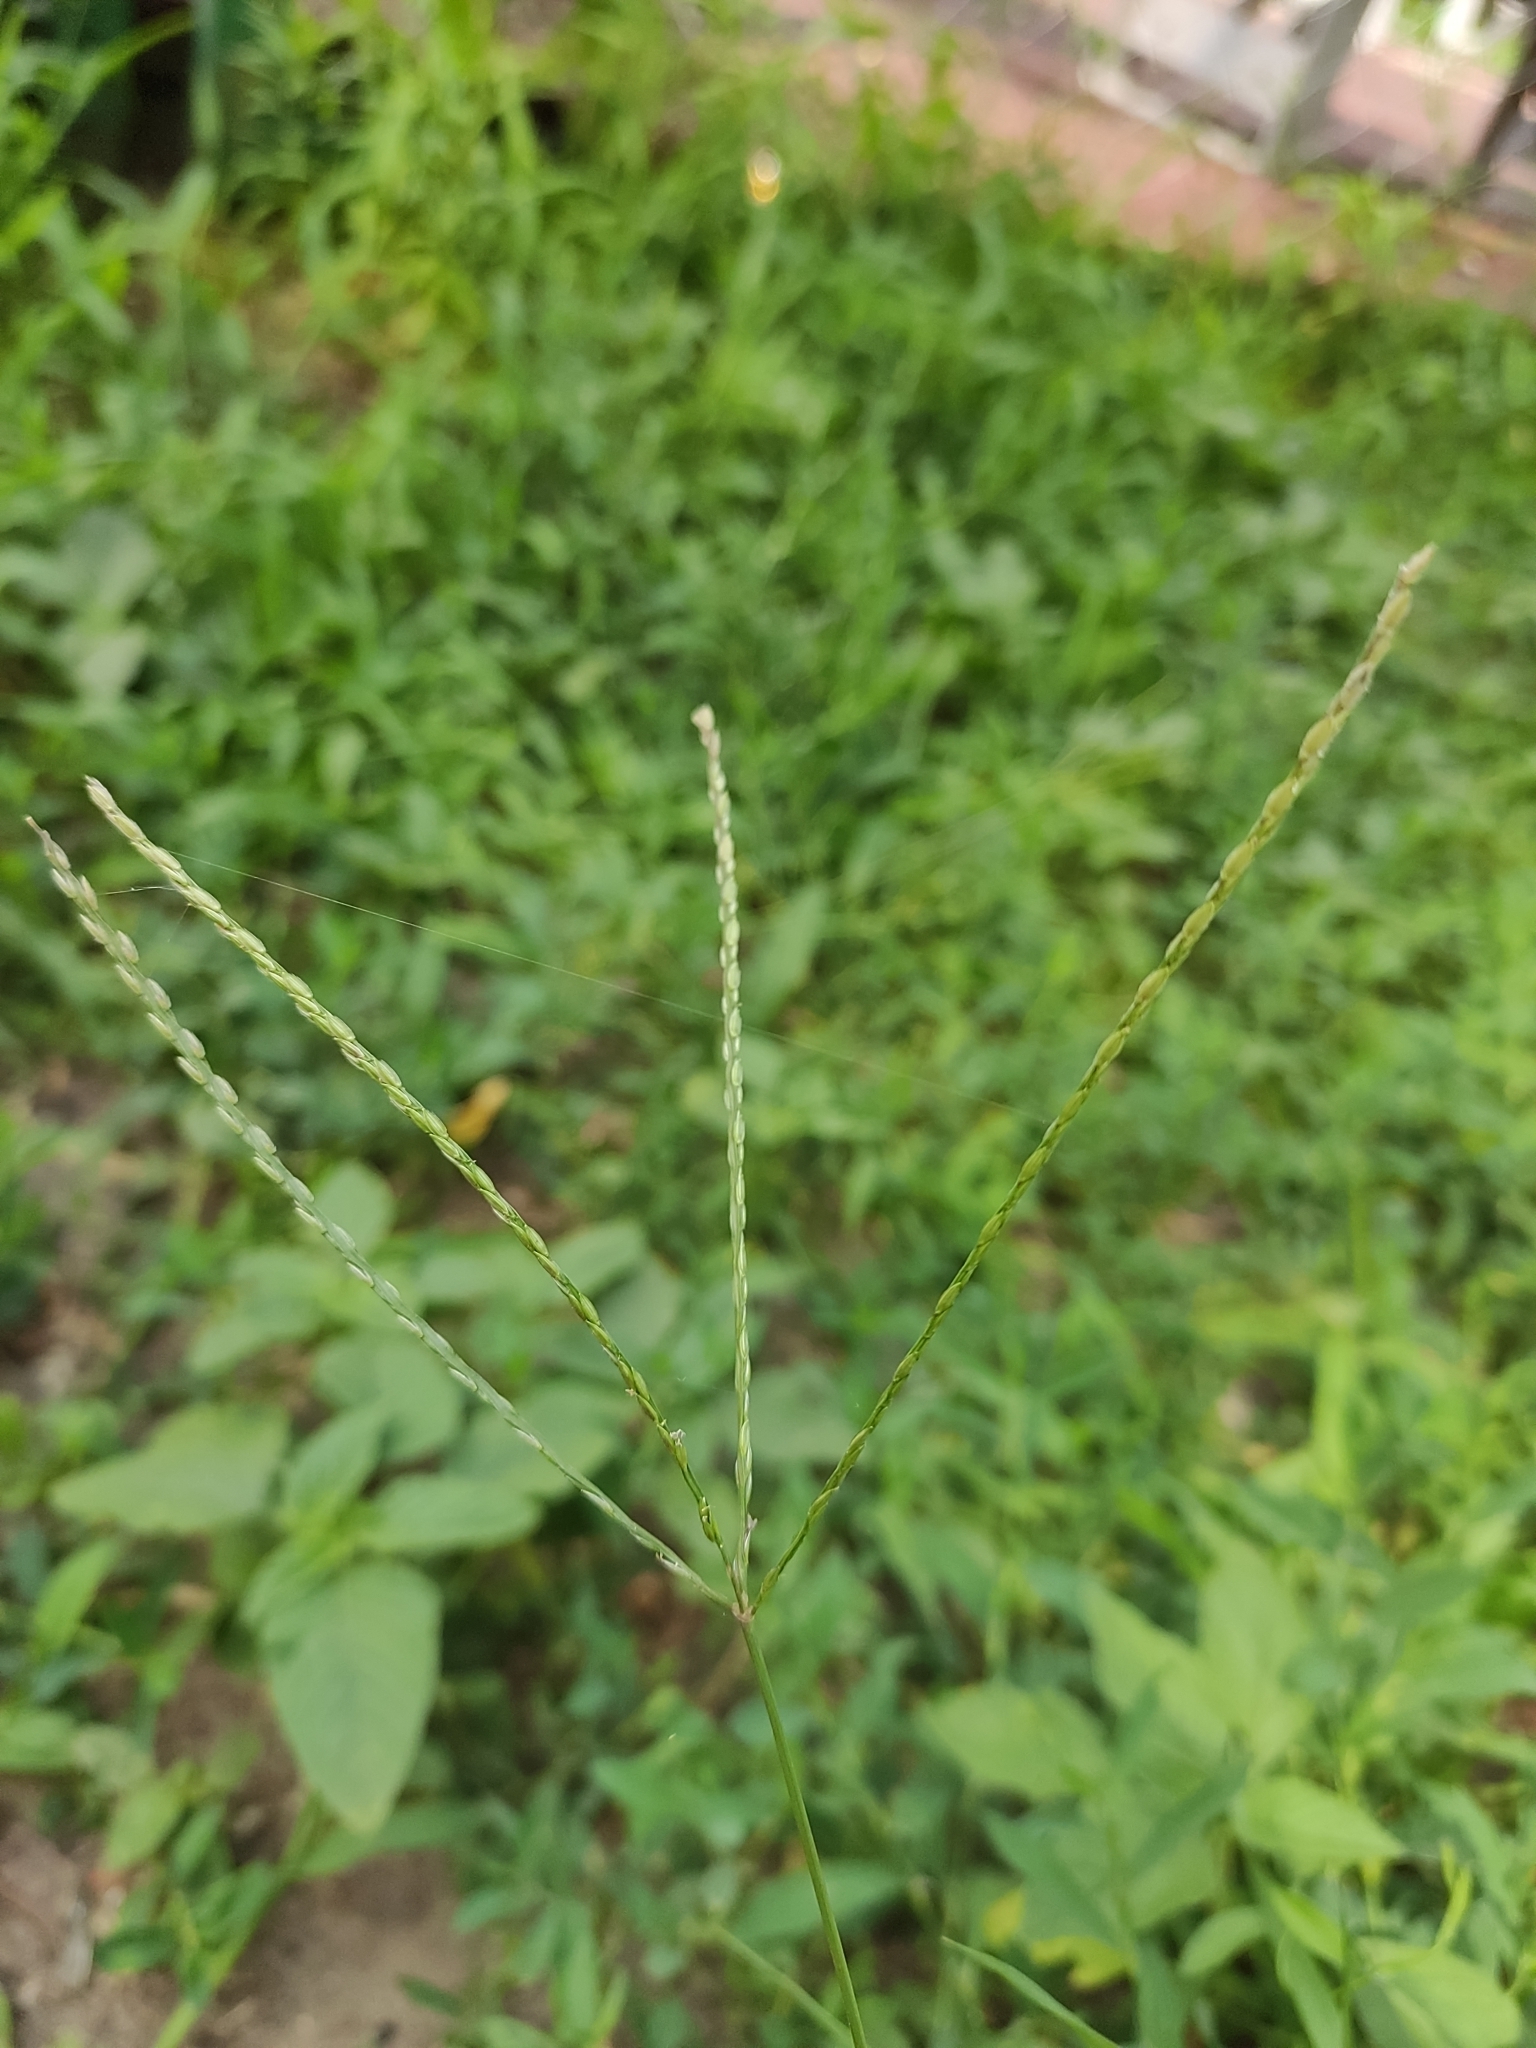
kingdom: Plantae
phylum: Tracheophyta
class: Liliopsida
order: Poales
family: Poaceae
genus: Digitaria
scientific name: Digitaria sanguinalis
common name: Hairy crabgrass
